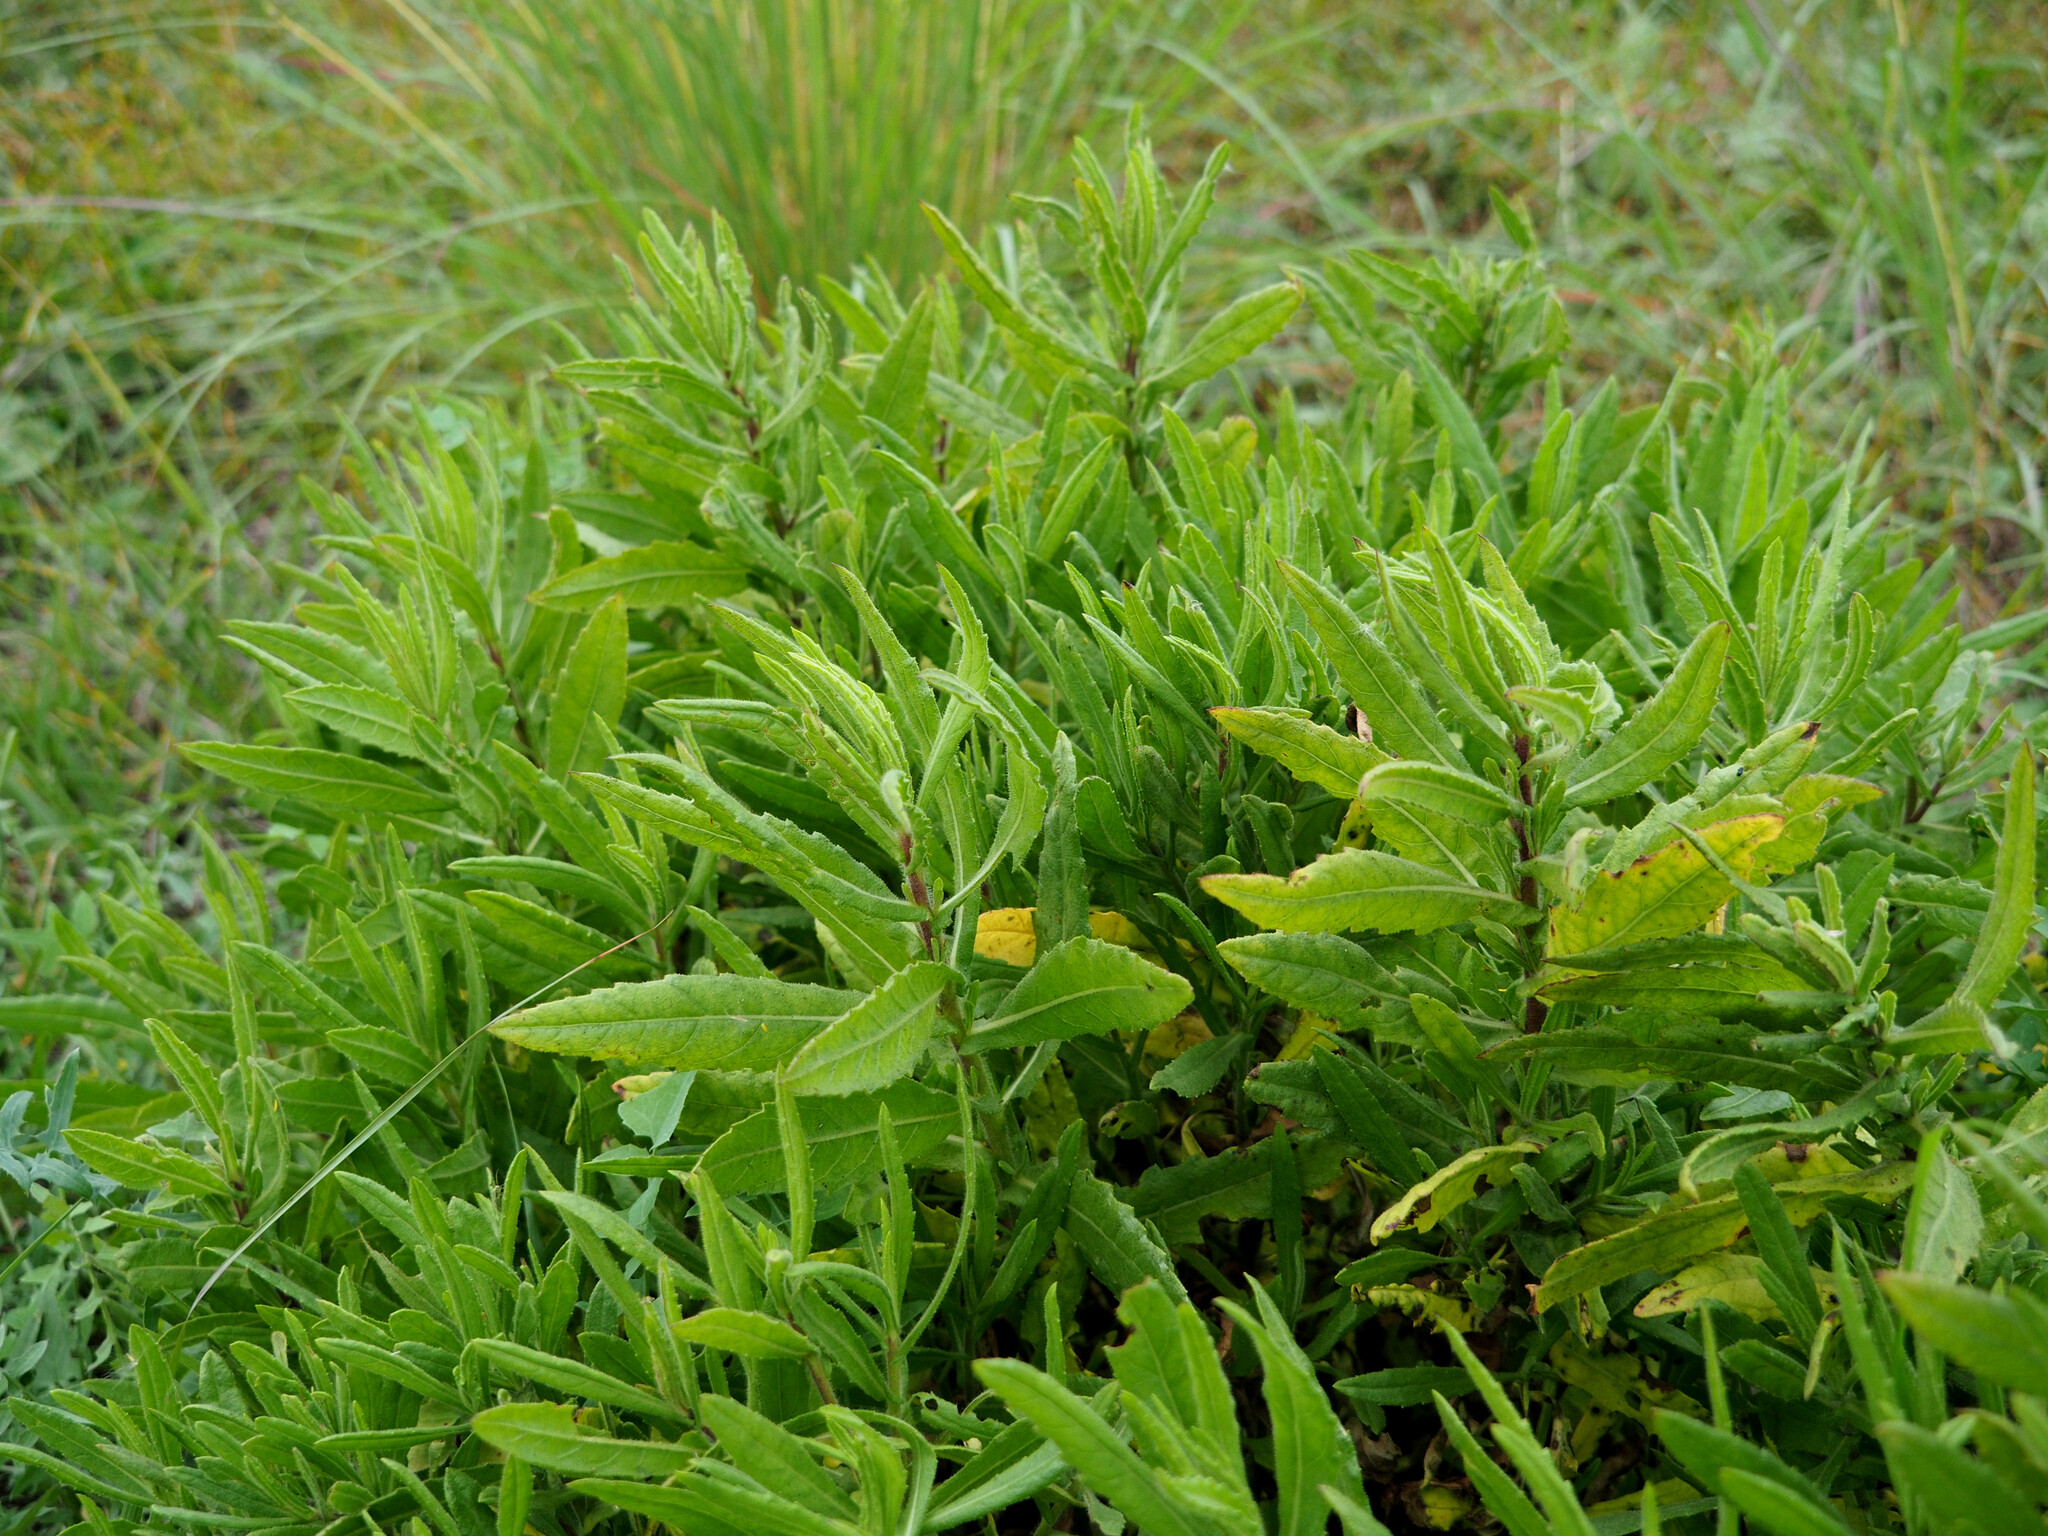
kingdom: Plantae
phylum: Tracheophyta
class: Magnoliopsida
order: Asterales
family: Asteraceae
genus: Dittrichia
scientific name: Dittrichia viscosa
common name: Woody fleabane
